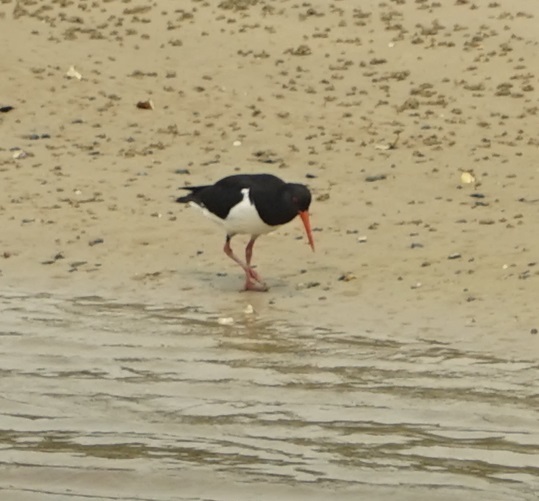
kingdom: Animalia
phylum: Chordata
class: Aves
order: Charadriiformes
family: Haematopodidae
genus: Haematopus
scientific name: Haematopus longirostris
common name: Pied oystercatcher
